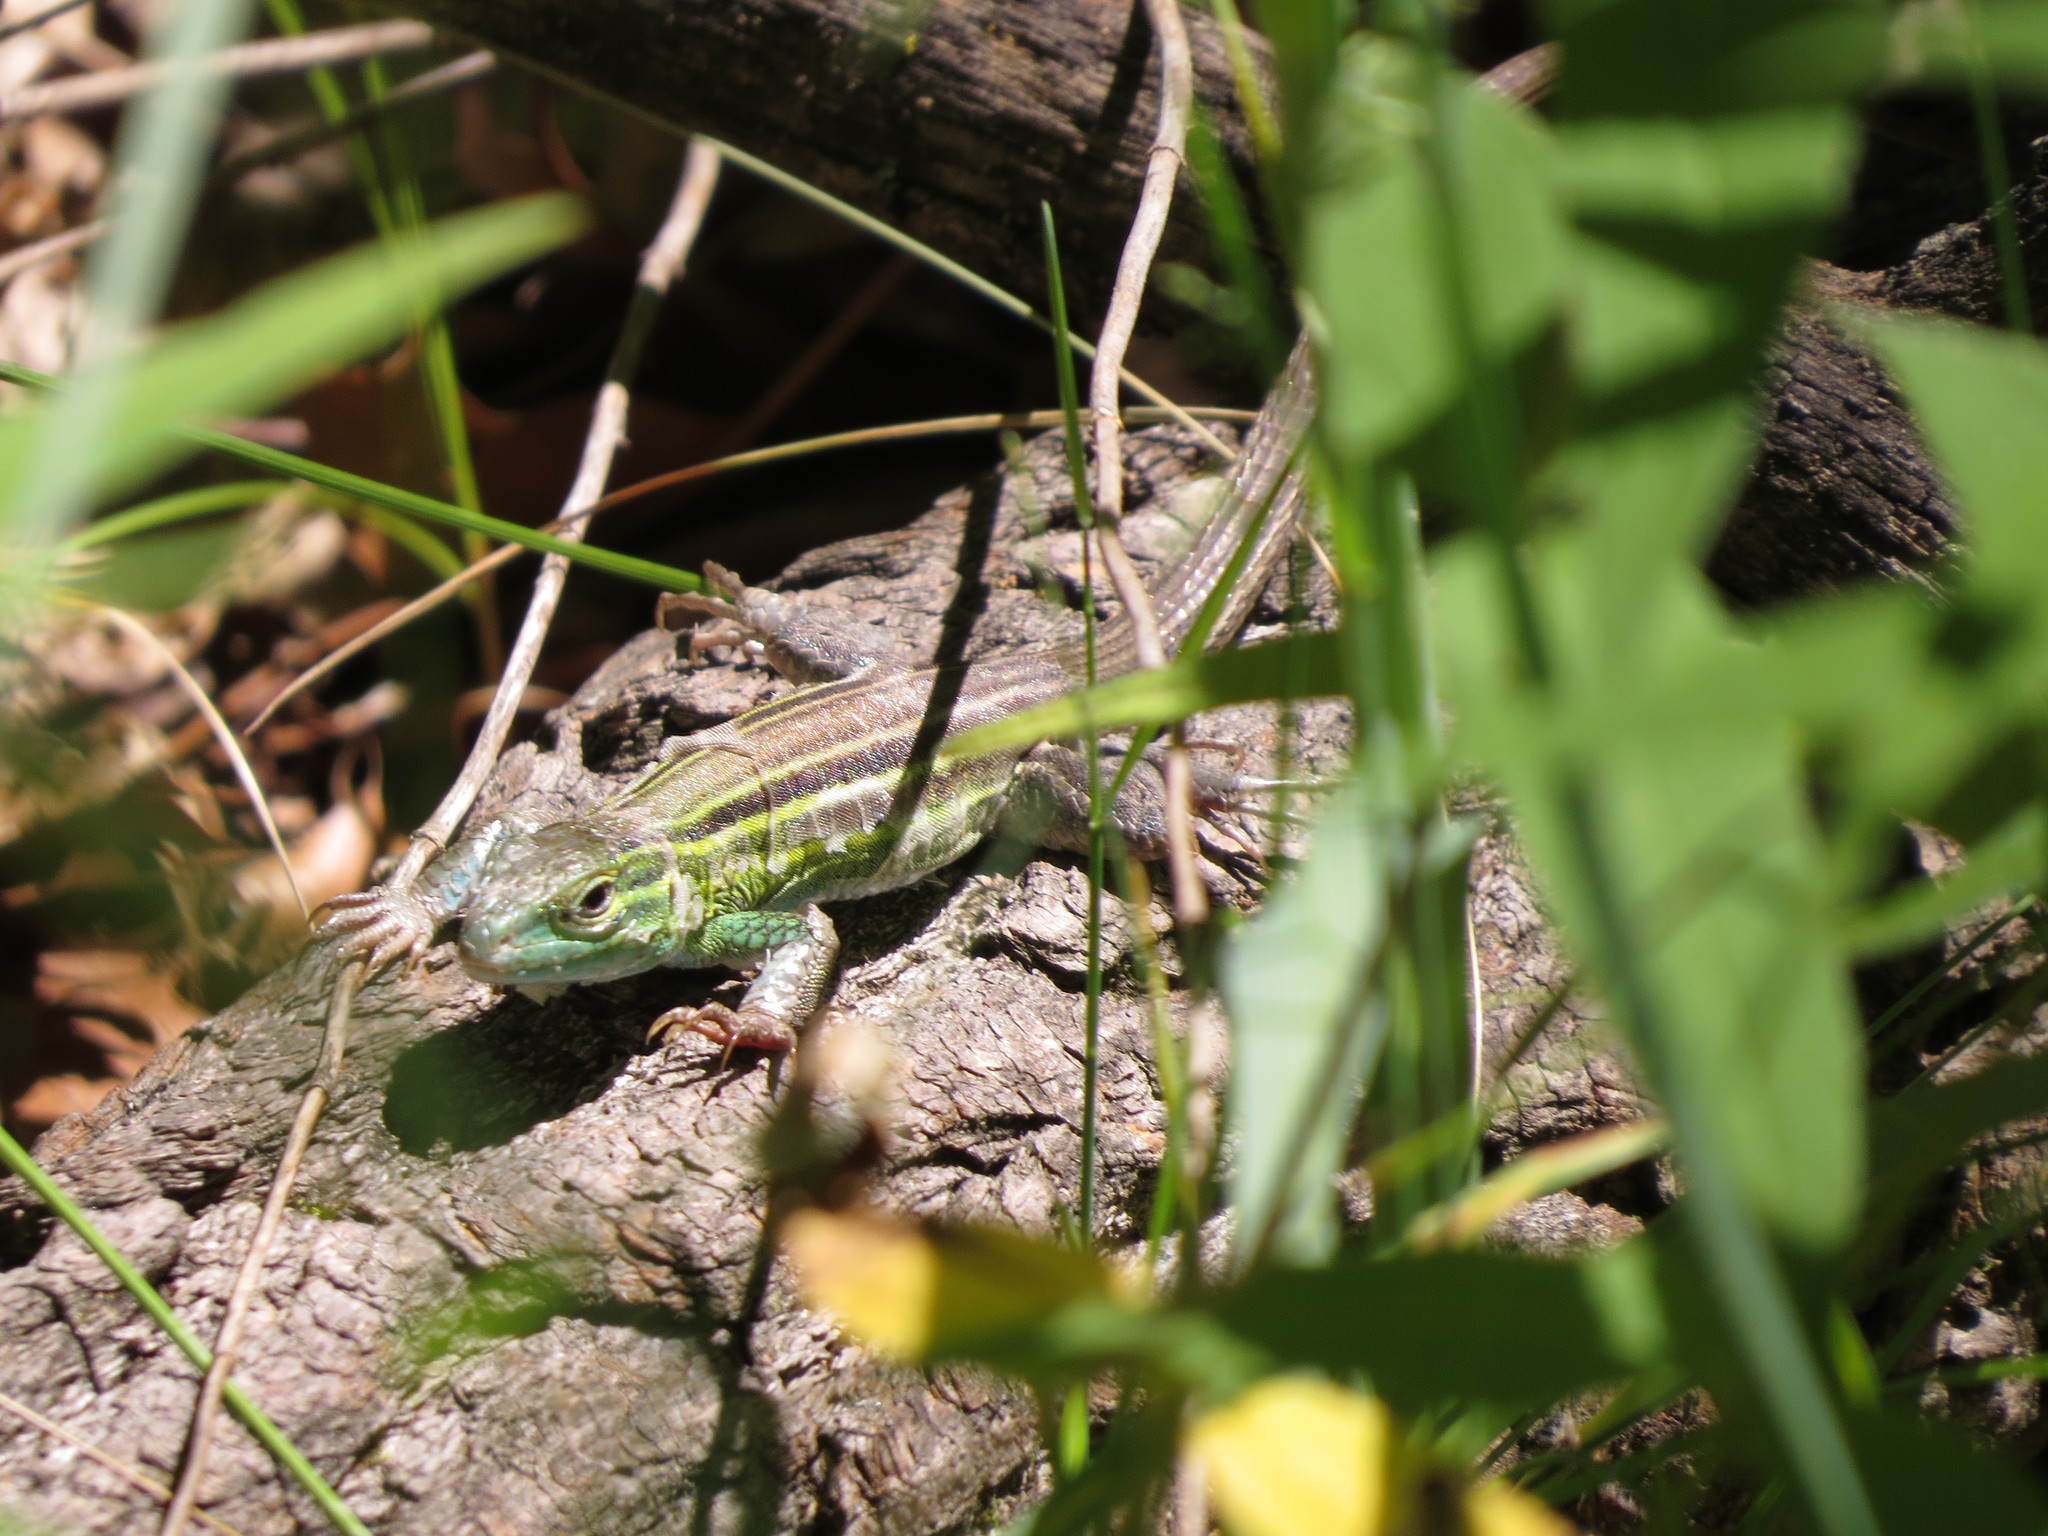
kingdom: Animalia
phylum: Chordata
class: Squamata
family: Teiidae
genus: Aspidoscelis
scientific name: Aspidoscelis sexlineatus
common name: Six-lined racerunner
